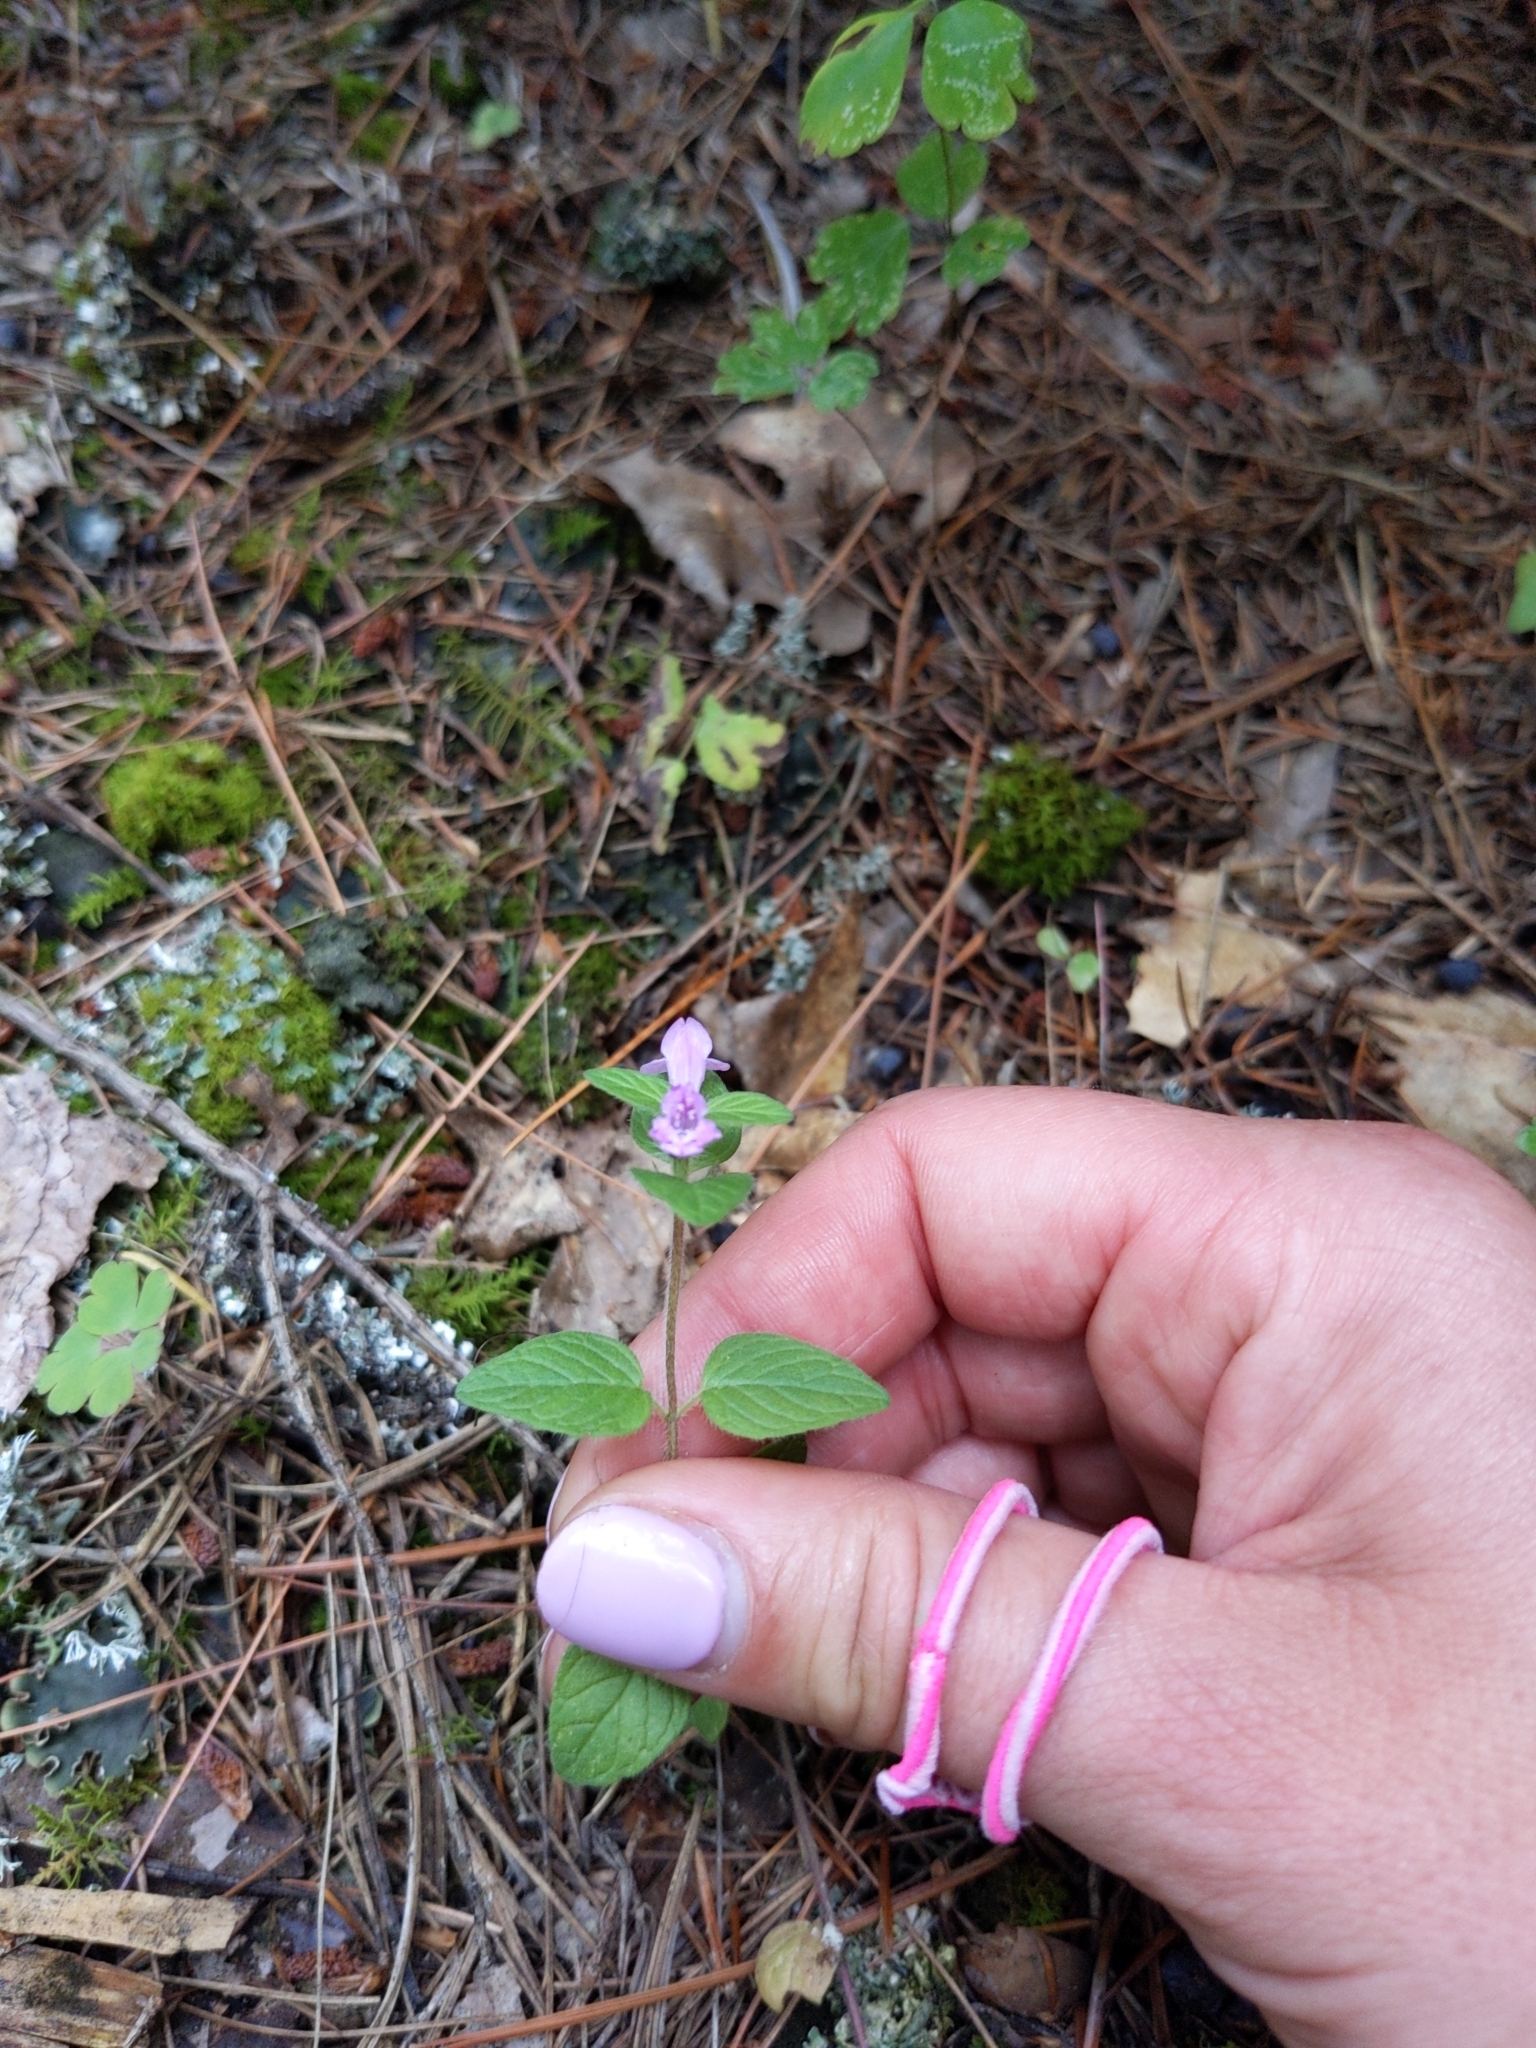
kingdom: Plantae
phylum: Tracheophyta
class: Magnoliopsida
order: Lamiales
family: Lamiaceae
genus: Clinopodium
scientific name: Clinopodium vulgare
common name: Wild basil
